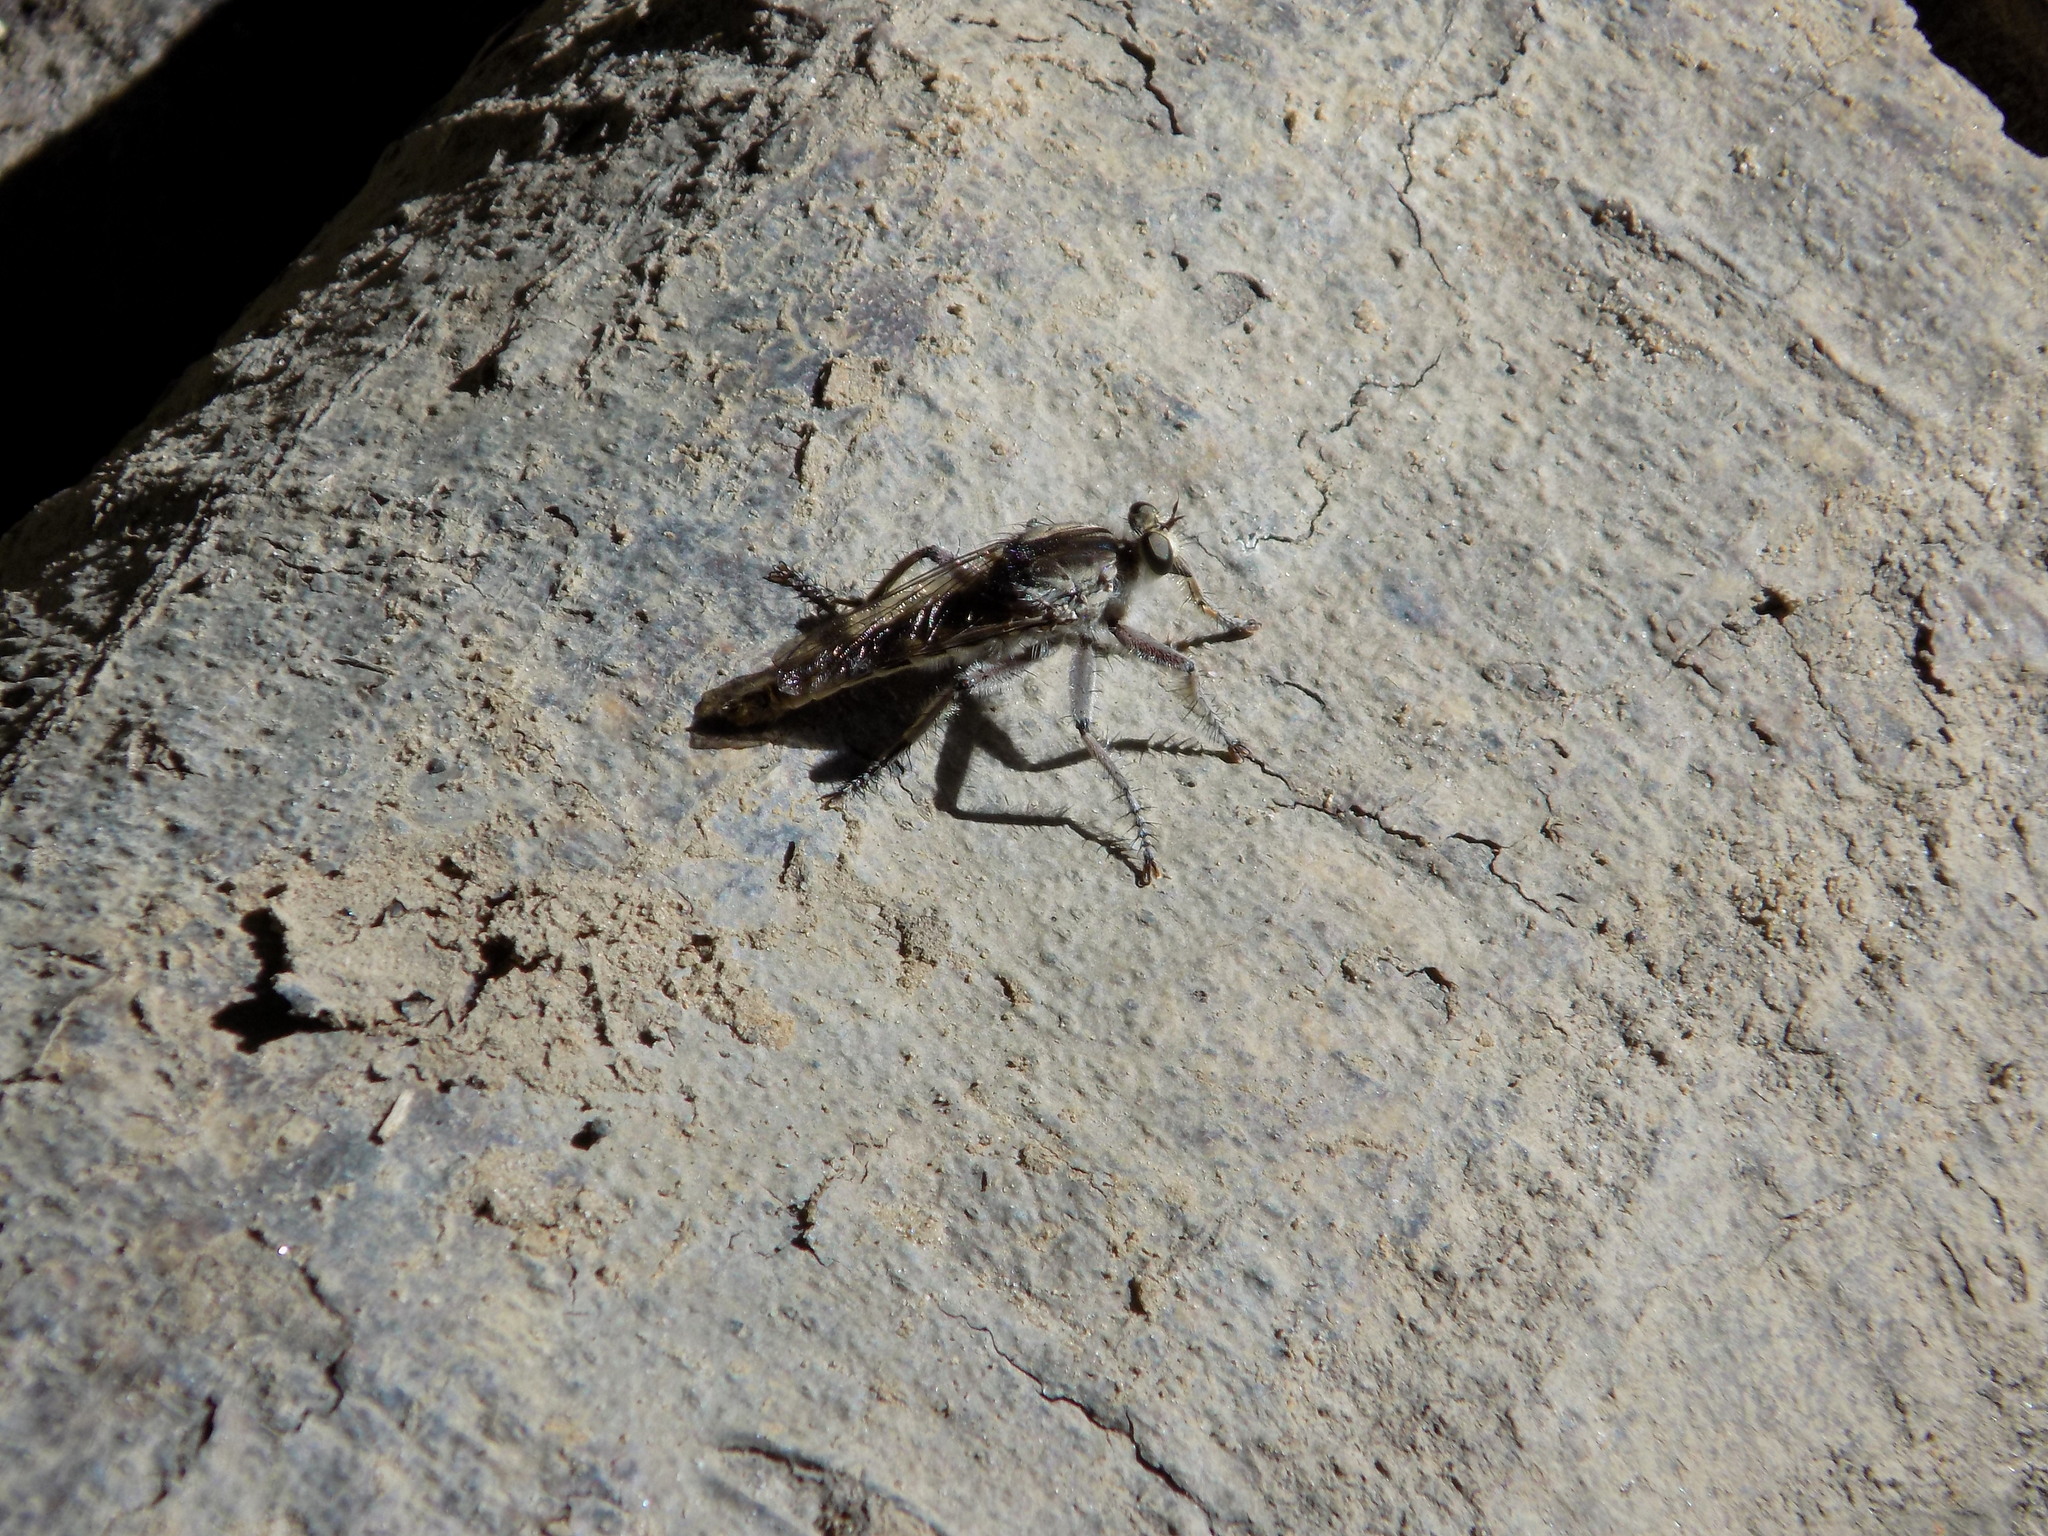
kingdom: Animalia
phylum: Arthropoda
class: Insecta
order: Diptera
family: Asilidae
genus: Triorla
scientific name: Triorla interrupta
